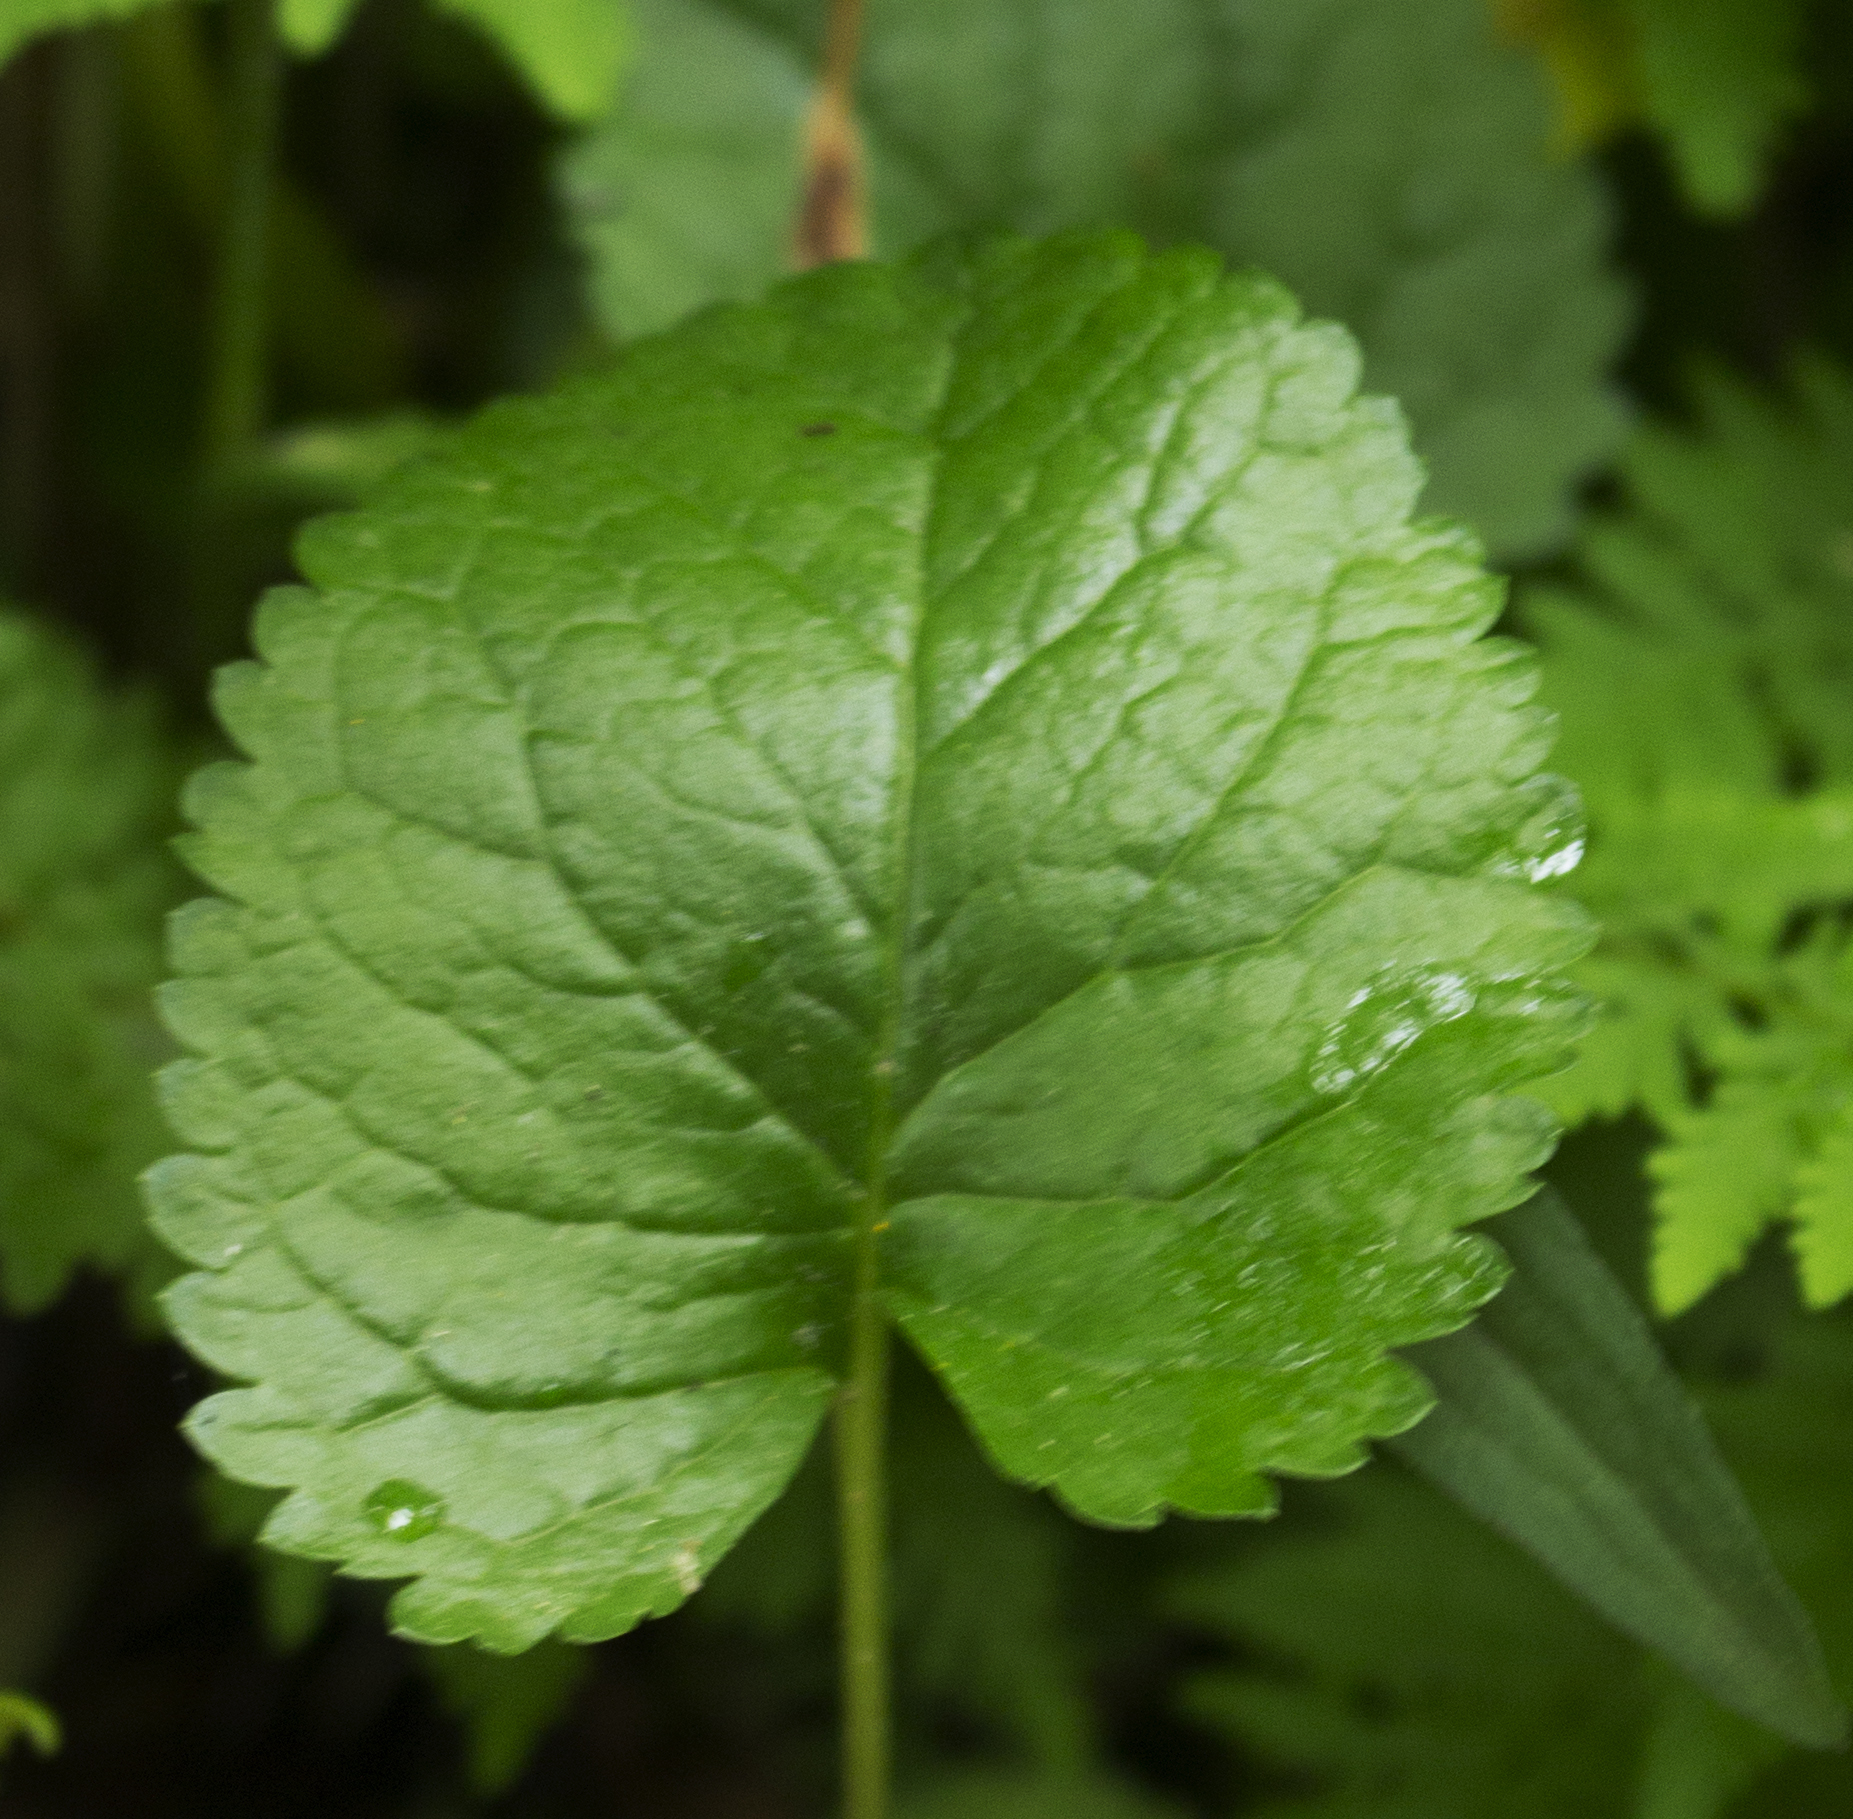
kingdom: Plantae
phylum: Tracheophyta
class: Magnoliopsida
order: Asterales
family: Asteraceae
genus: Packera
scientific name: Packera aurea
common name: Golden groundsel
